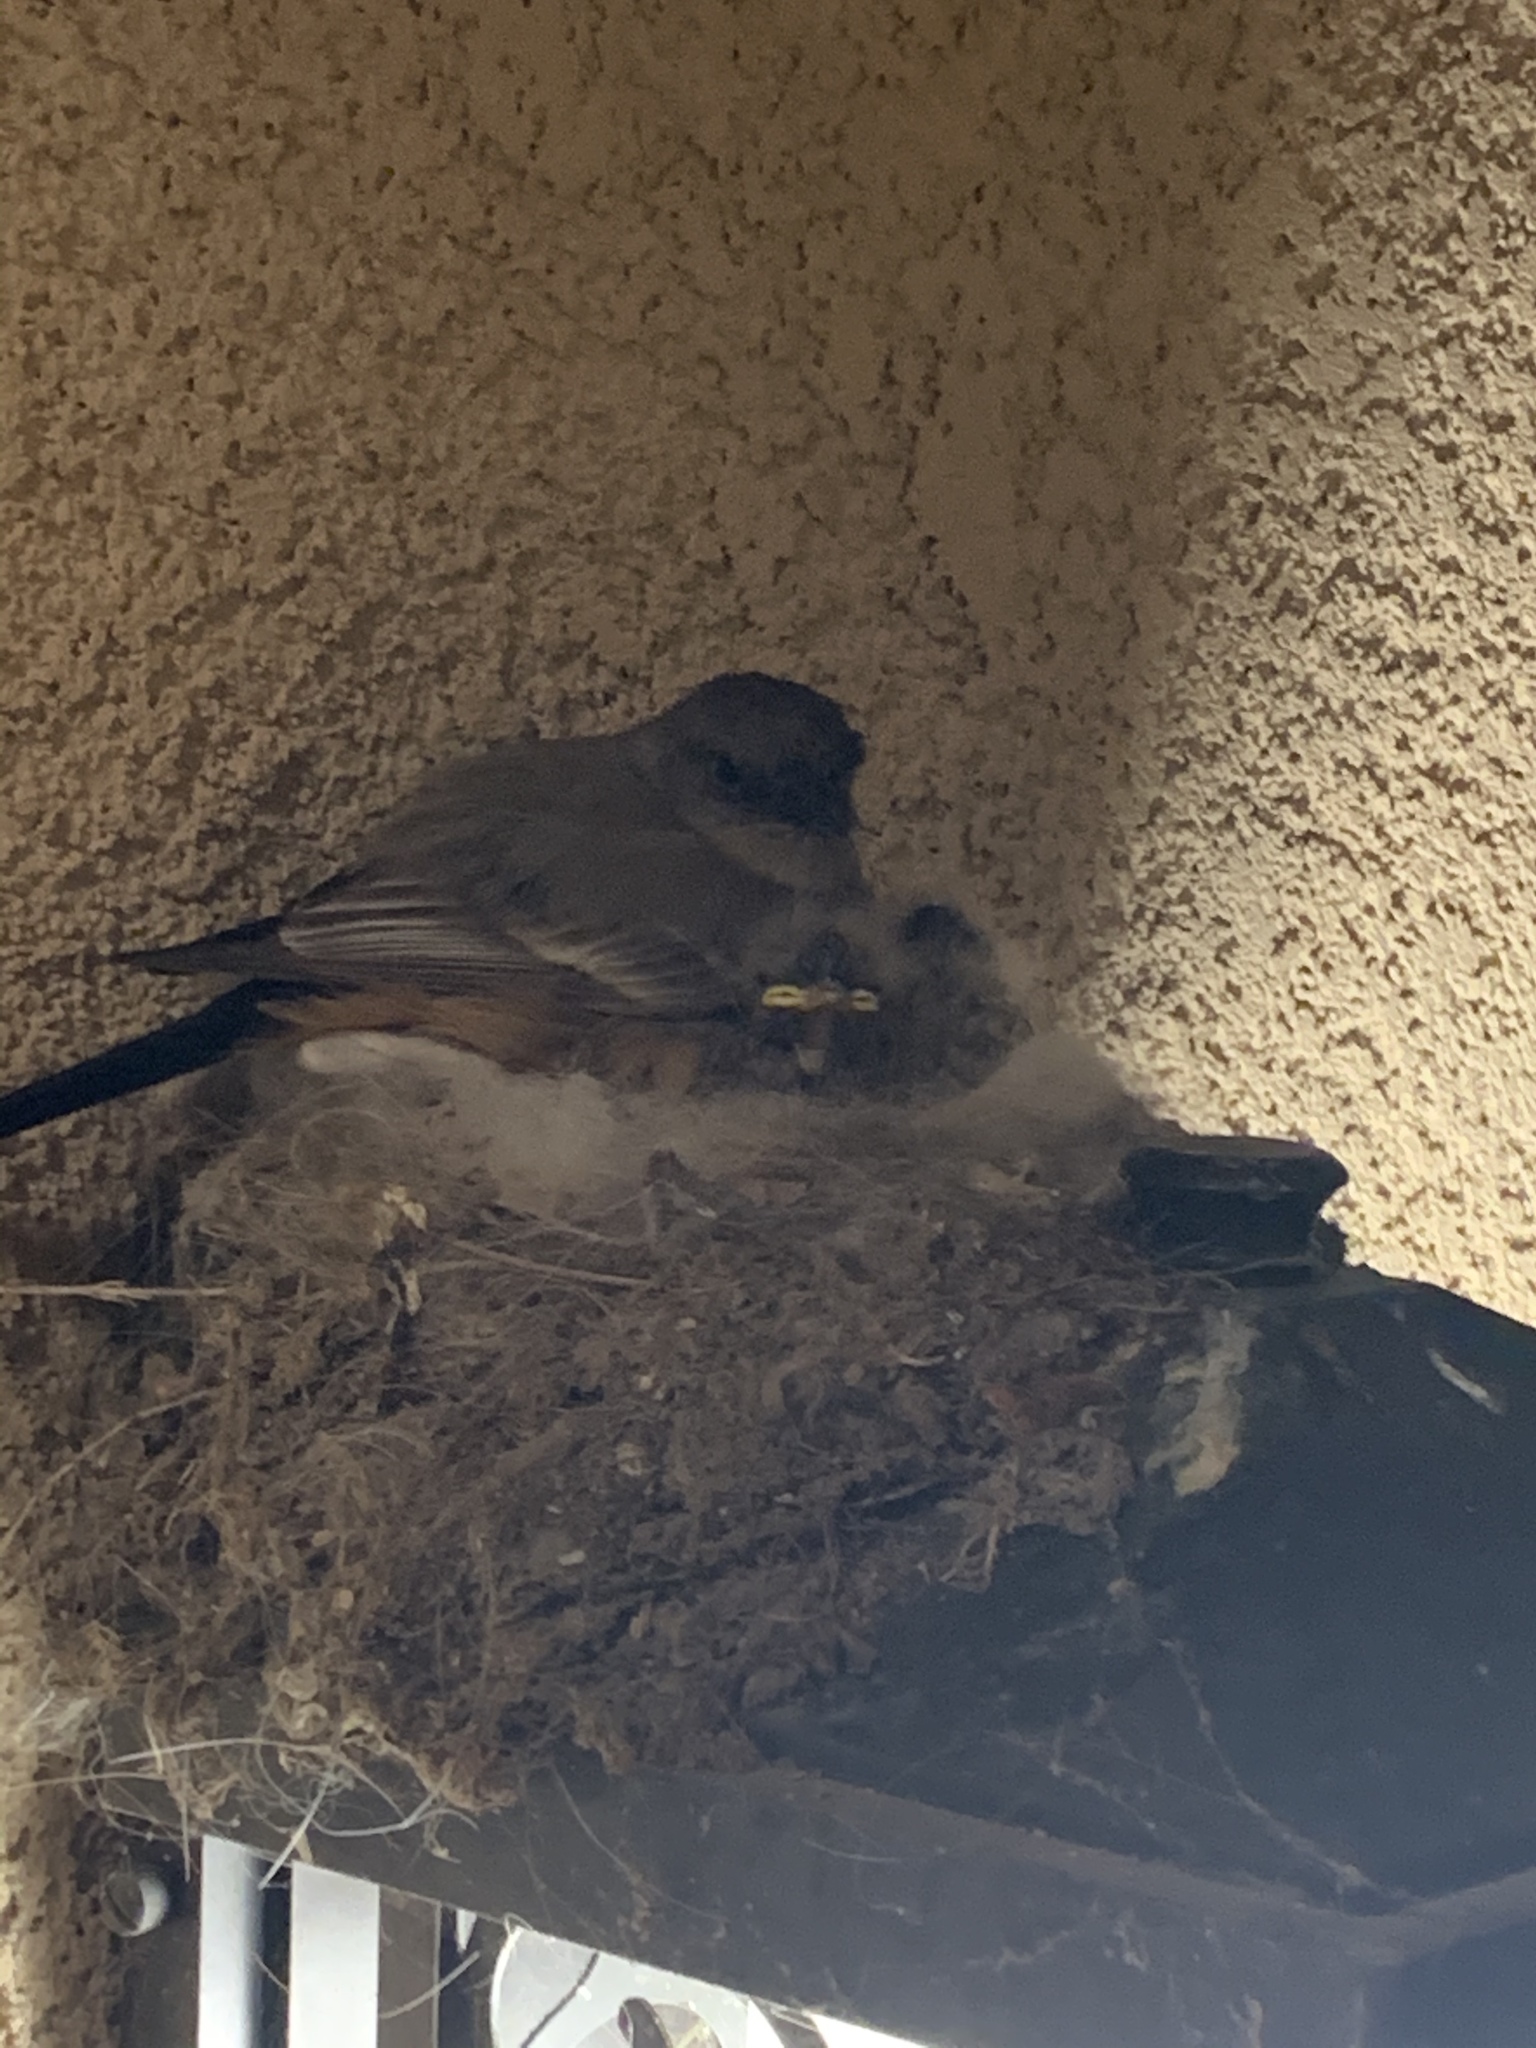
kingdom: Animalia
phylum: Chordata
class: Aves
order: Passeriformes
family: Tyrannidae
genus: Sayornis
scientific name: Sayornis saya
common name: Say's phoebe
